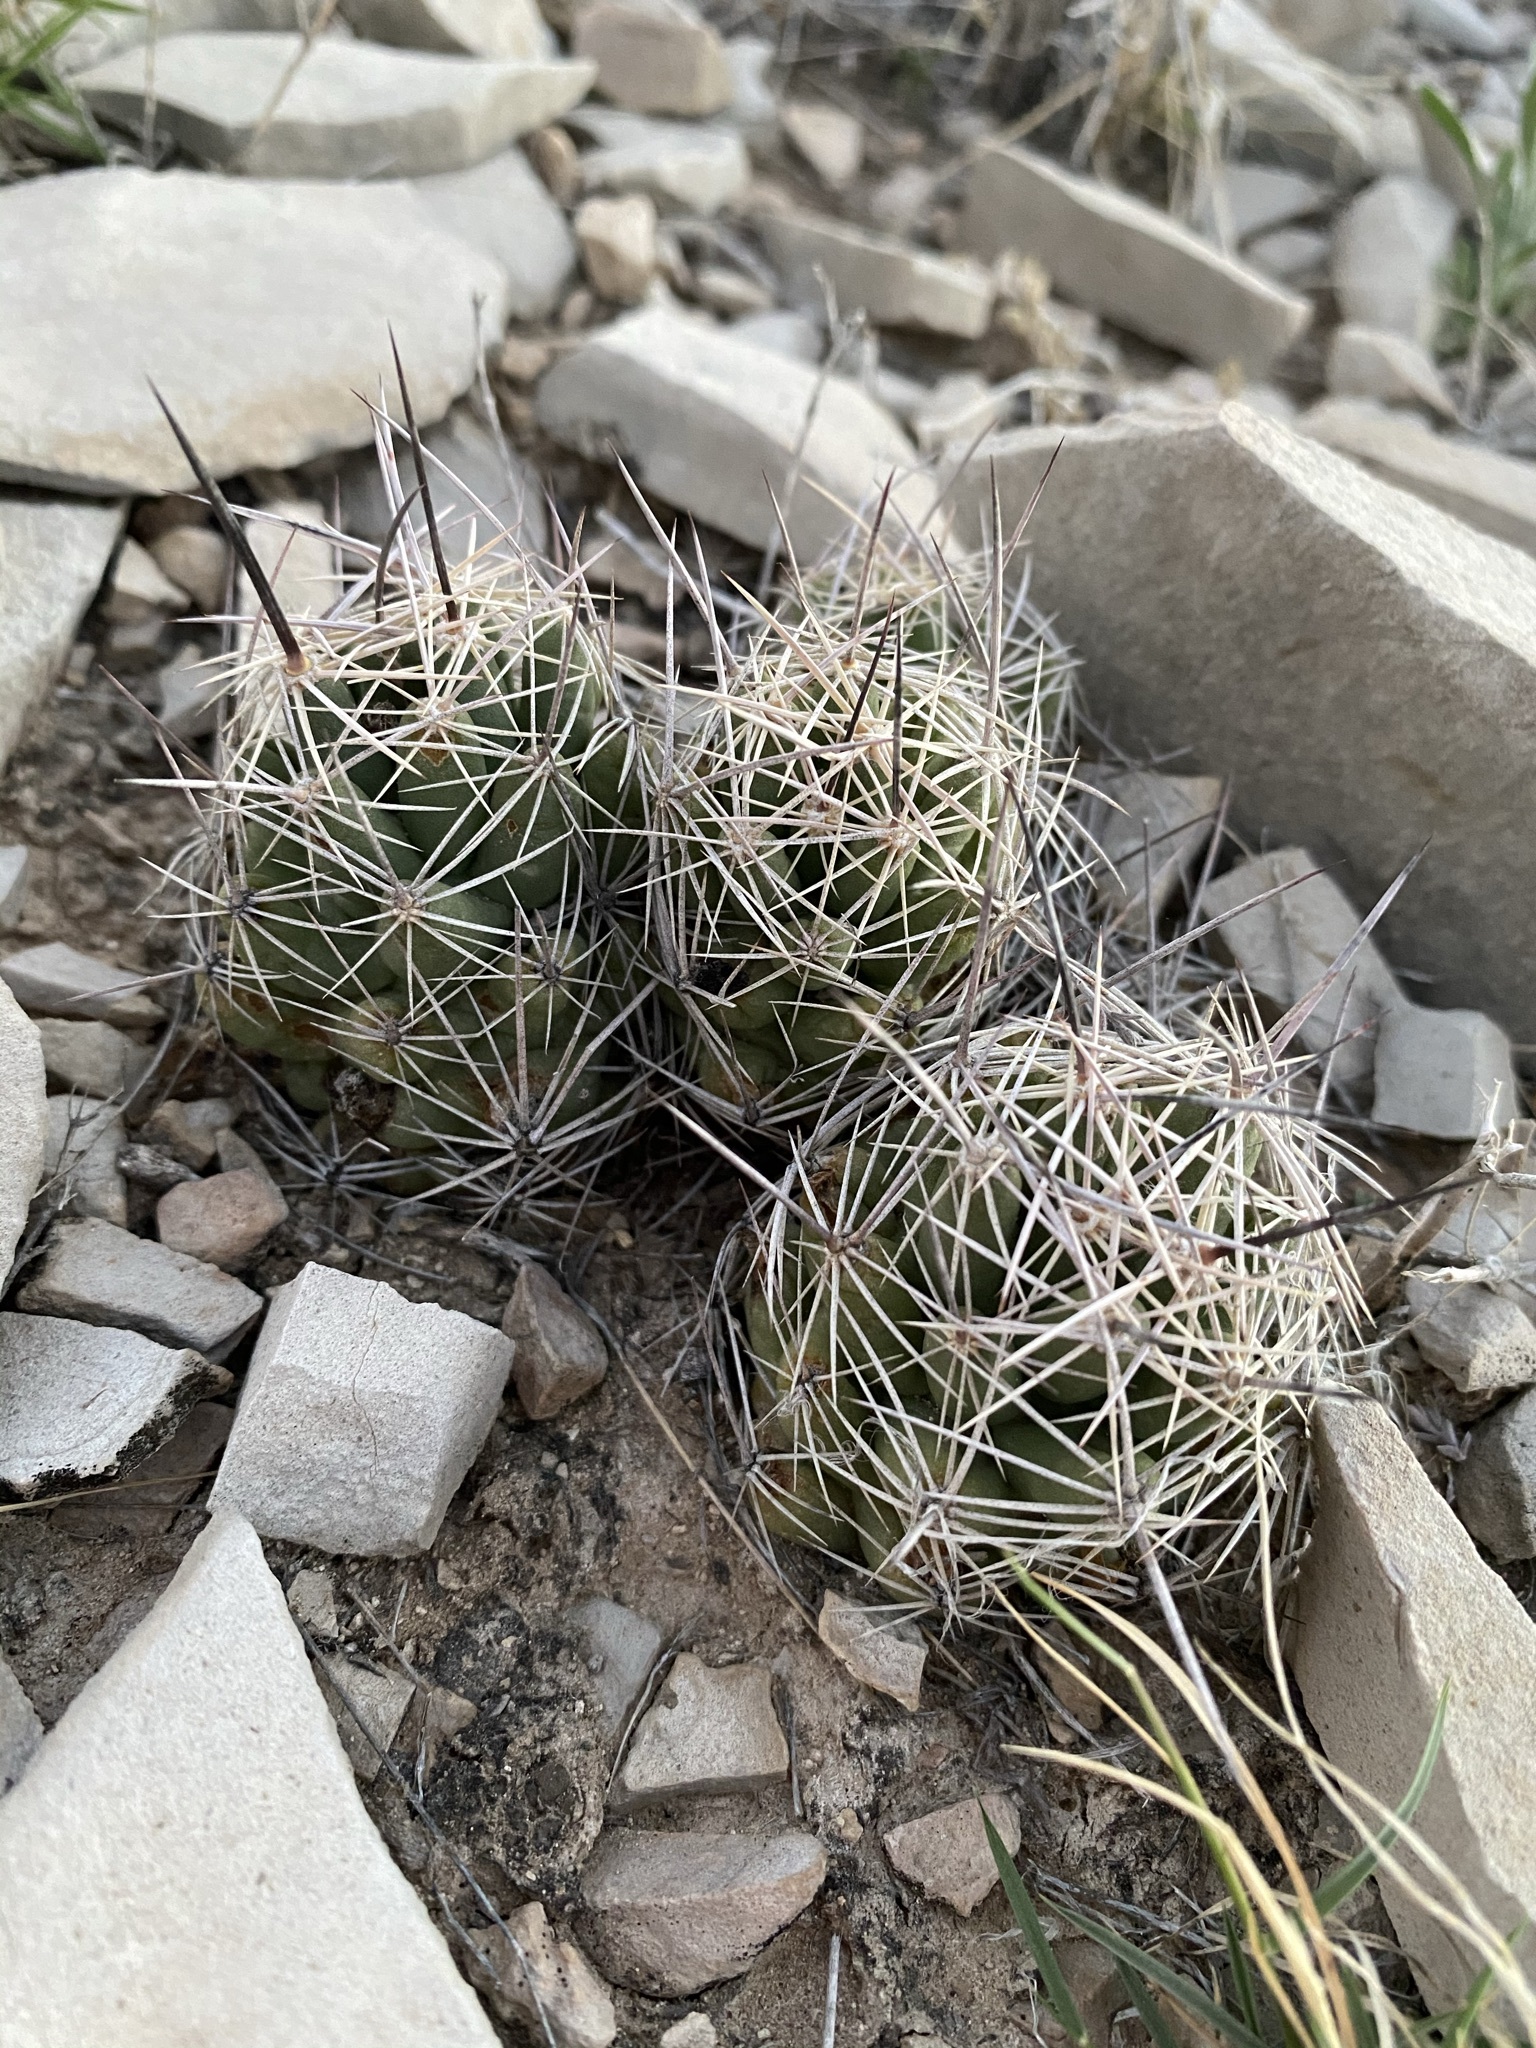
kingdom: Plantae
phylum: Tracheophyta
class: Magnoliopsida
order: Caryophyllales
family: Cactaceae
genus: Coryphantha
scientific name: Coryphantha macromeris
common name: Nipple beehive cactus
